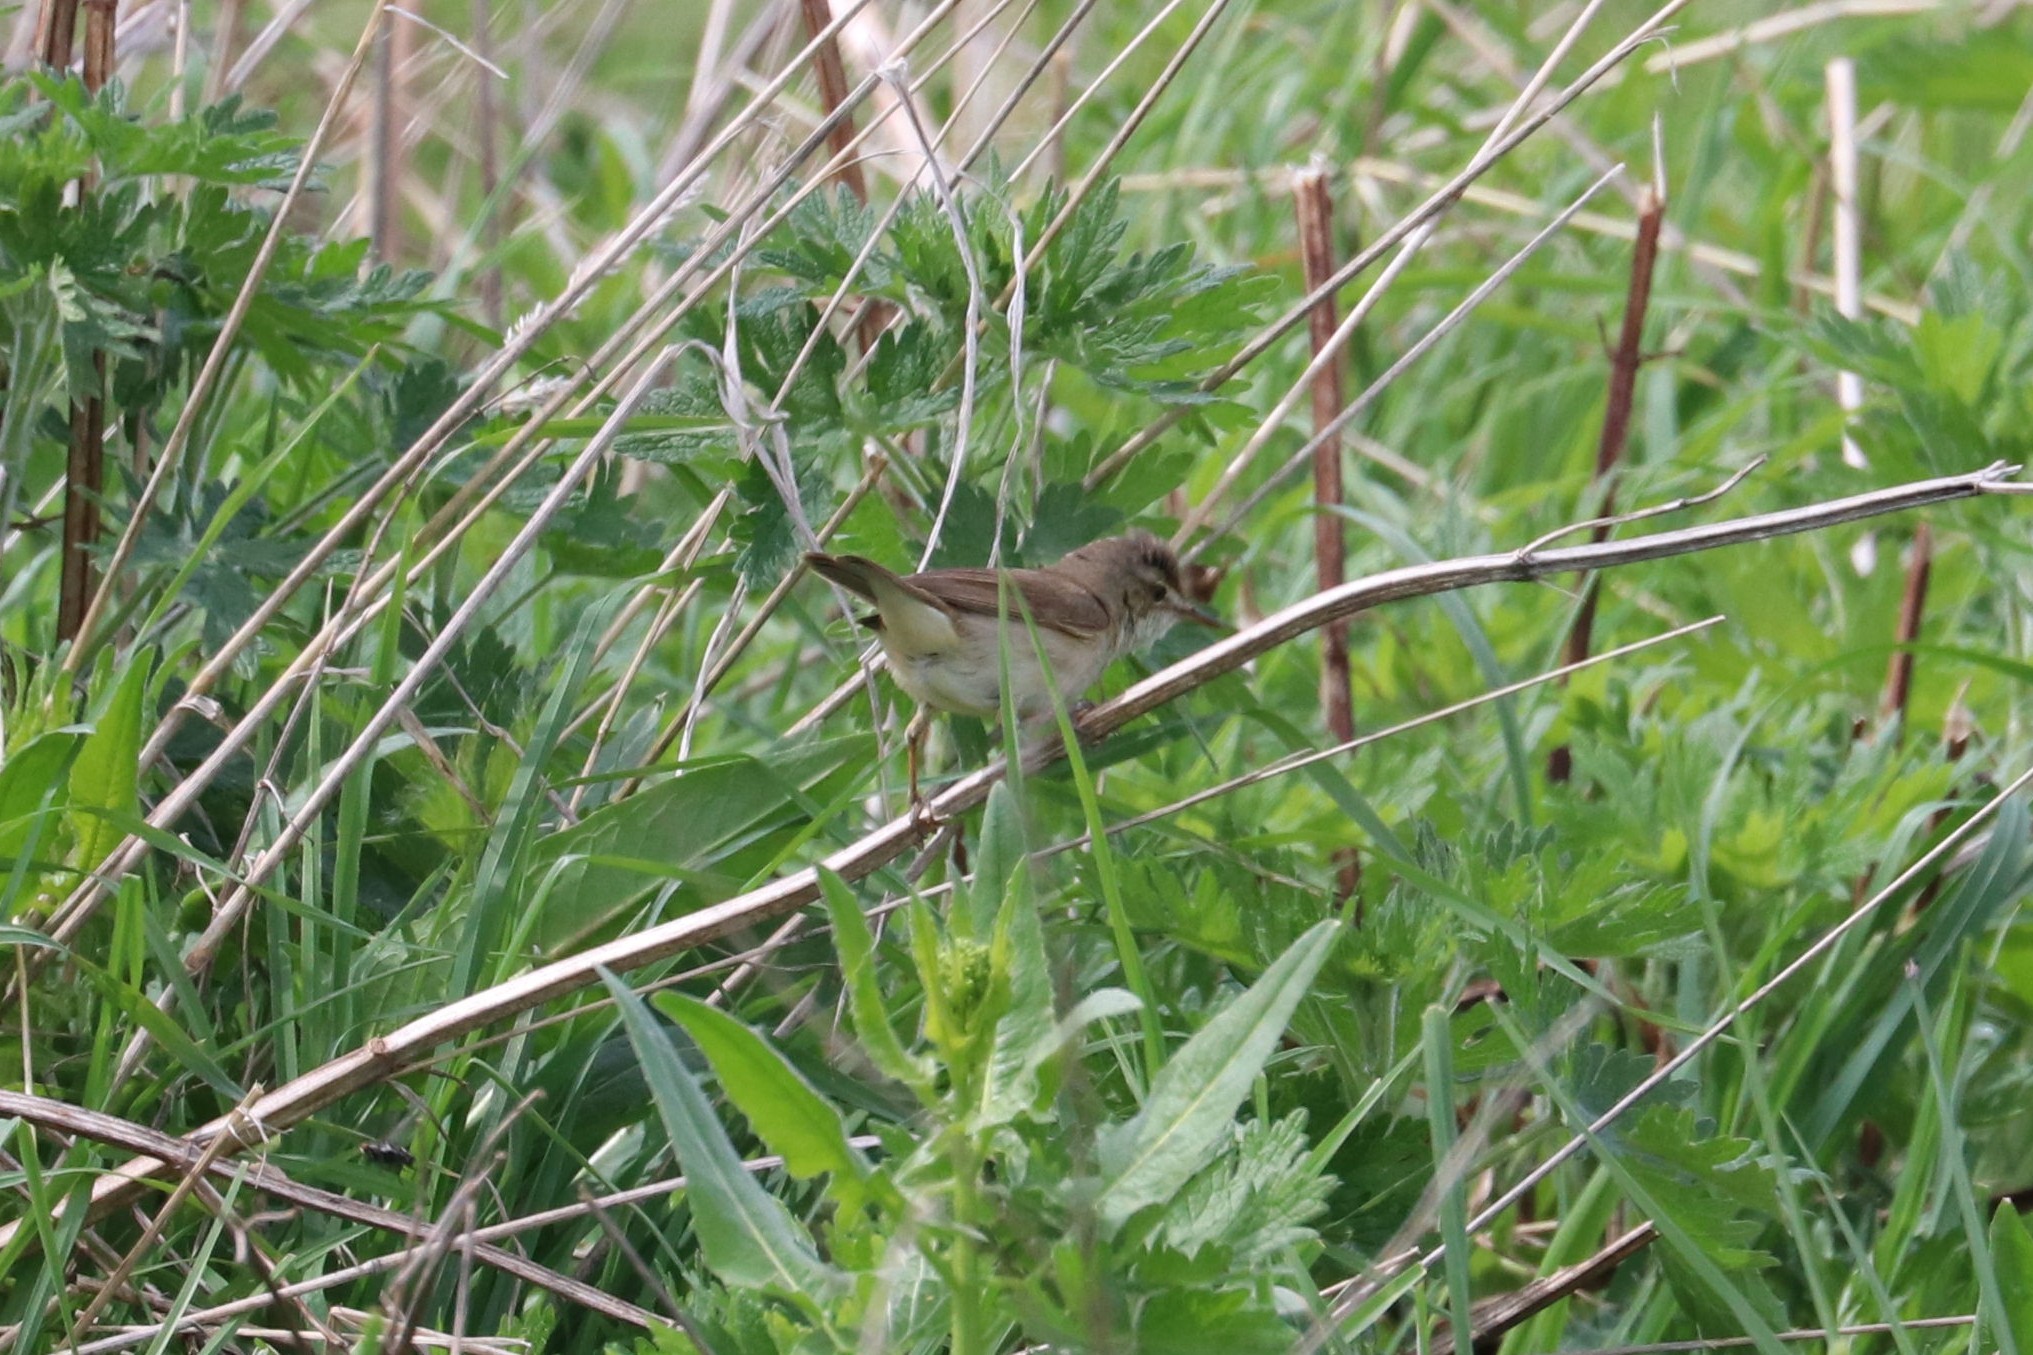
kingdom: Animalia
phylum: Chordata
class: Aves
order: Passeriformes
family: Acrocephalidae
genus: Iduna
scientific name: Iduna caligata
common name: Booted warbler
